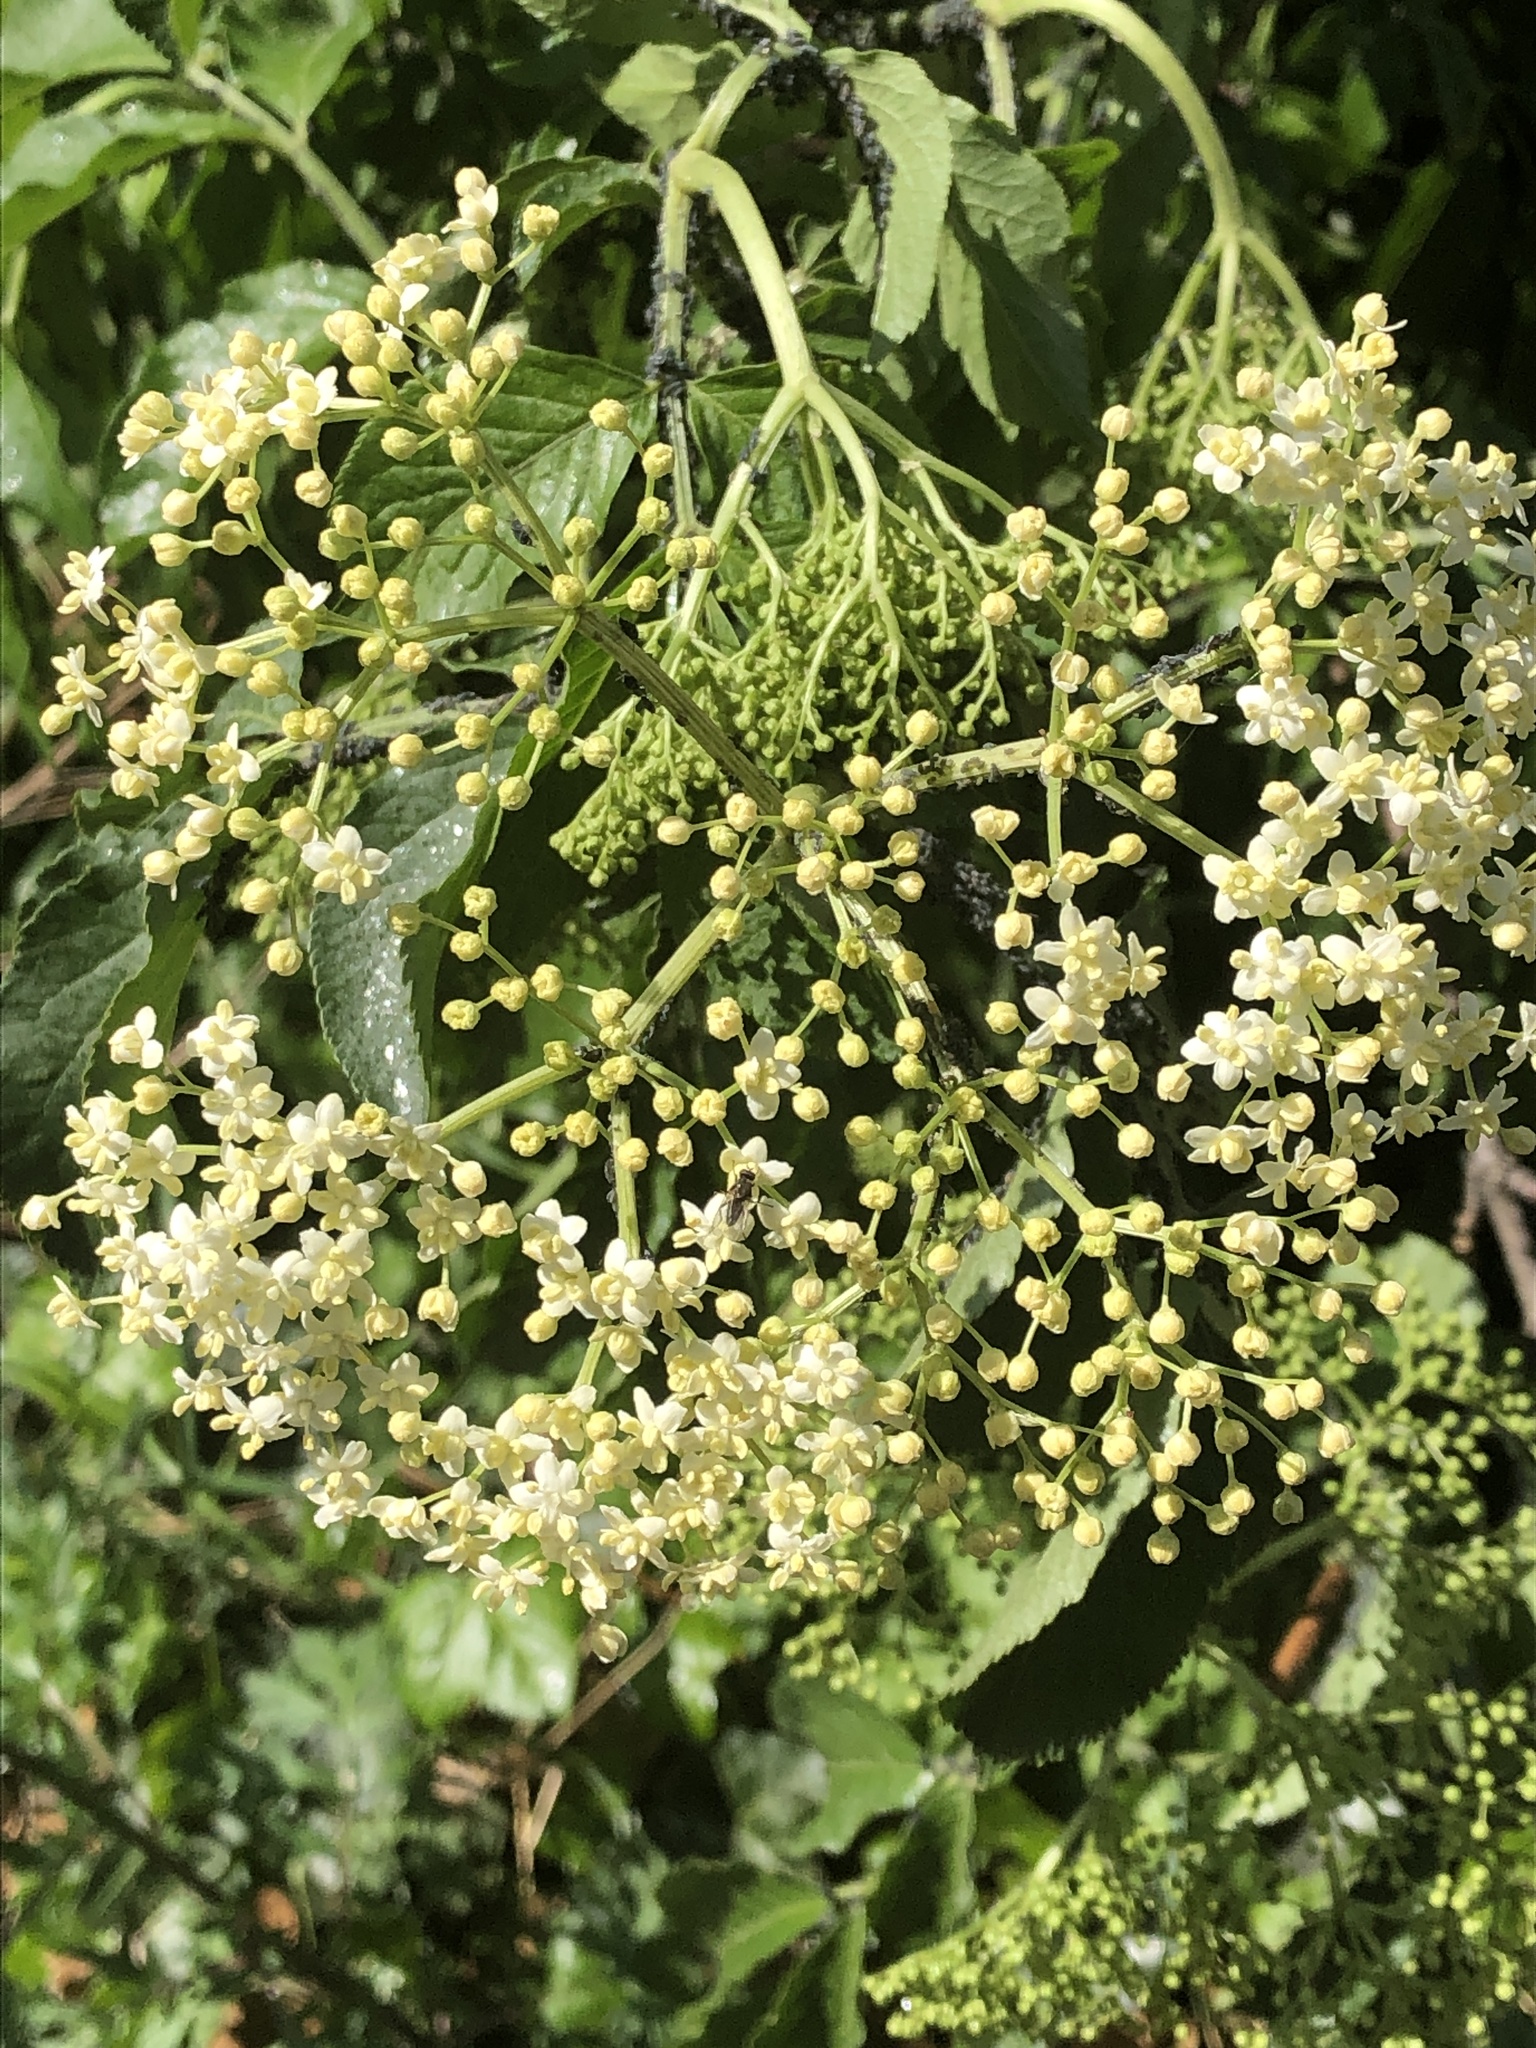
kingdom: Plantae
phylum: Tracheophyta
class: Magnoliopsida
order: Dipsacales
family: Viburnaceae
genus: Sambucus
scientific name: Sambucus nigra
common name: Elder
